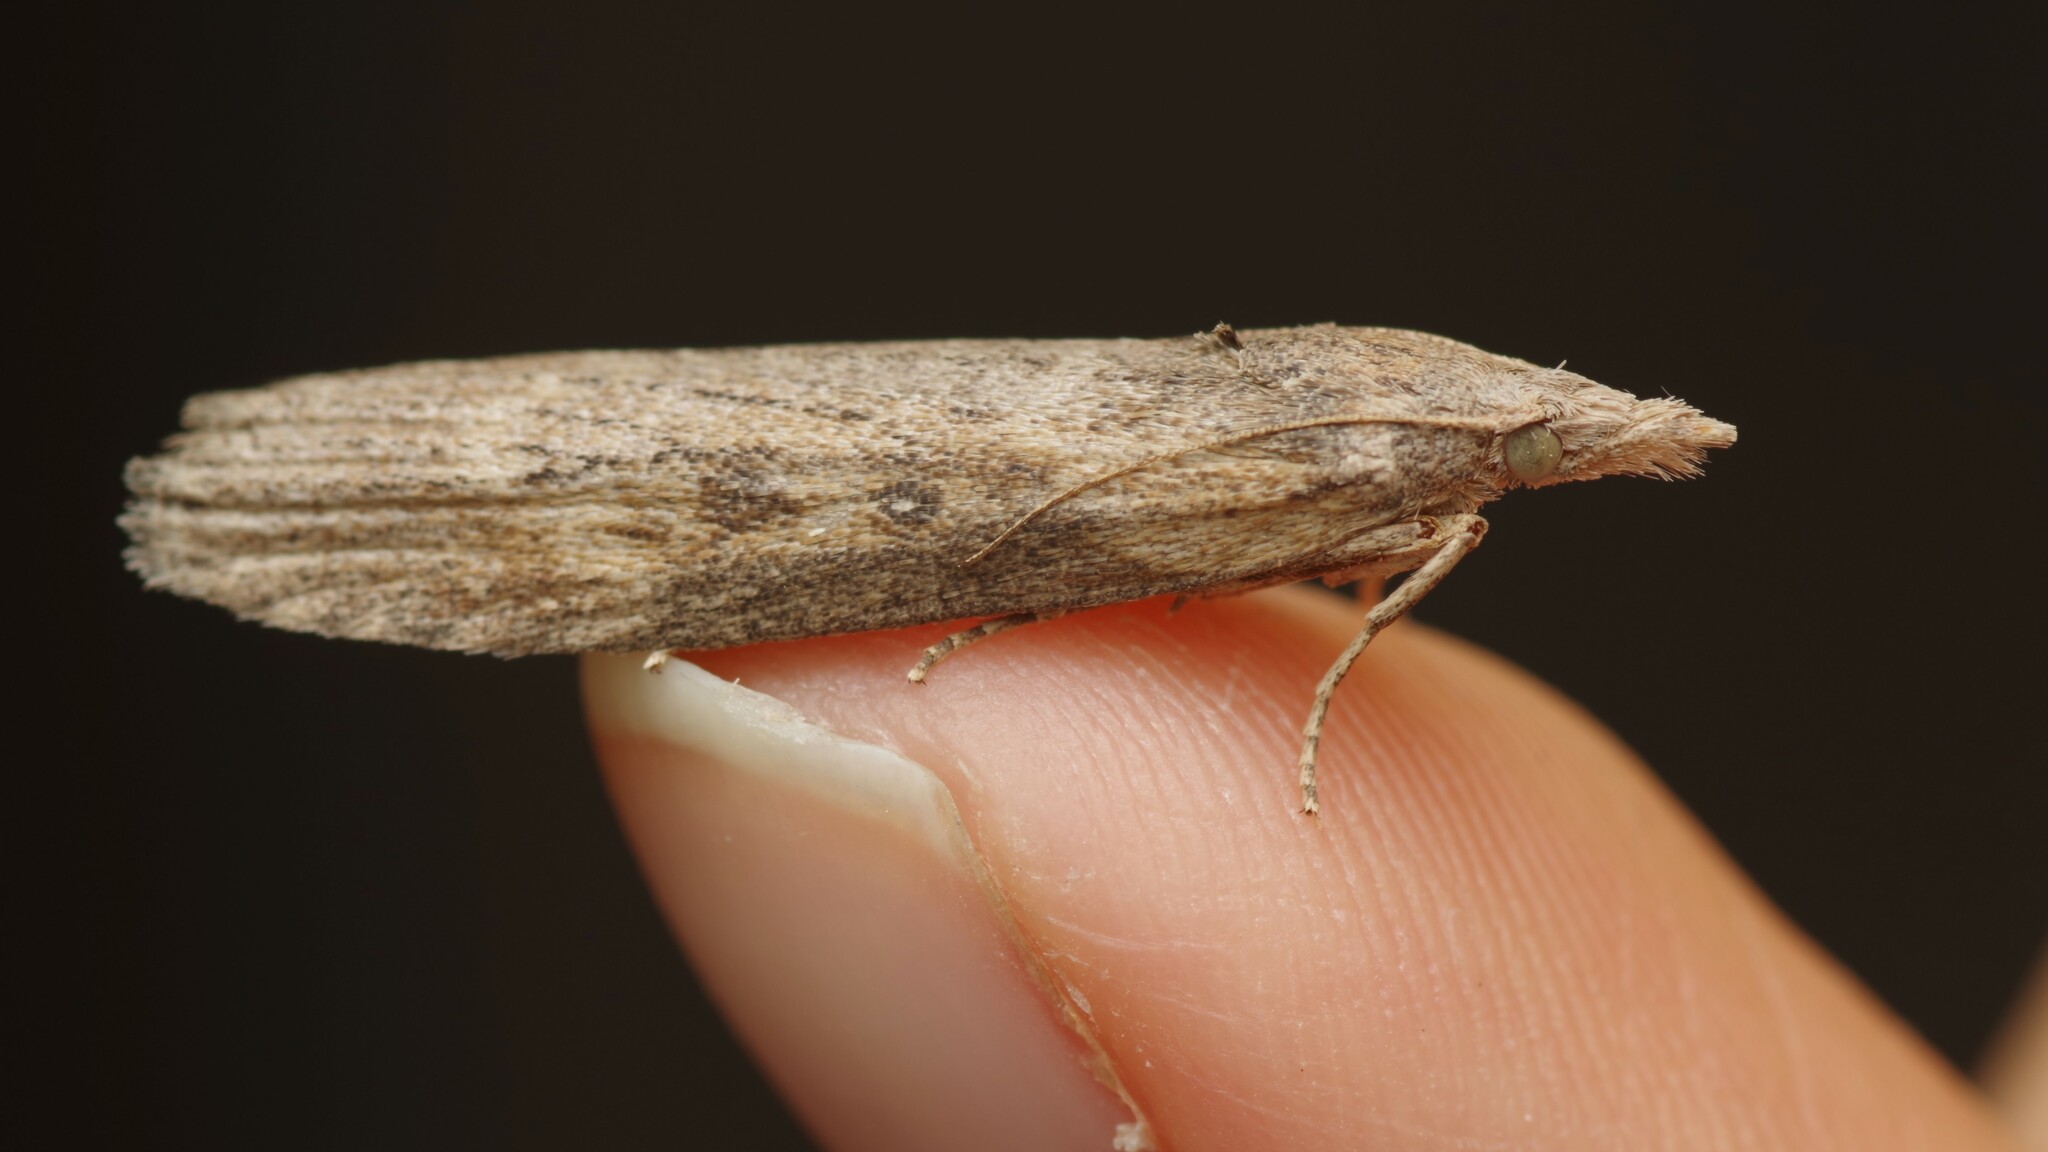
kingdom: Animalia
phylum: Arthropoda
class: Insecta
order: Lepidoptera
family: Pyralidae
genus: Lamoria
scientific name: Lamoria anella
